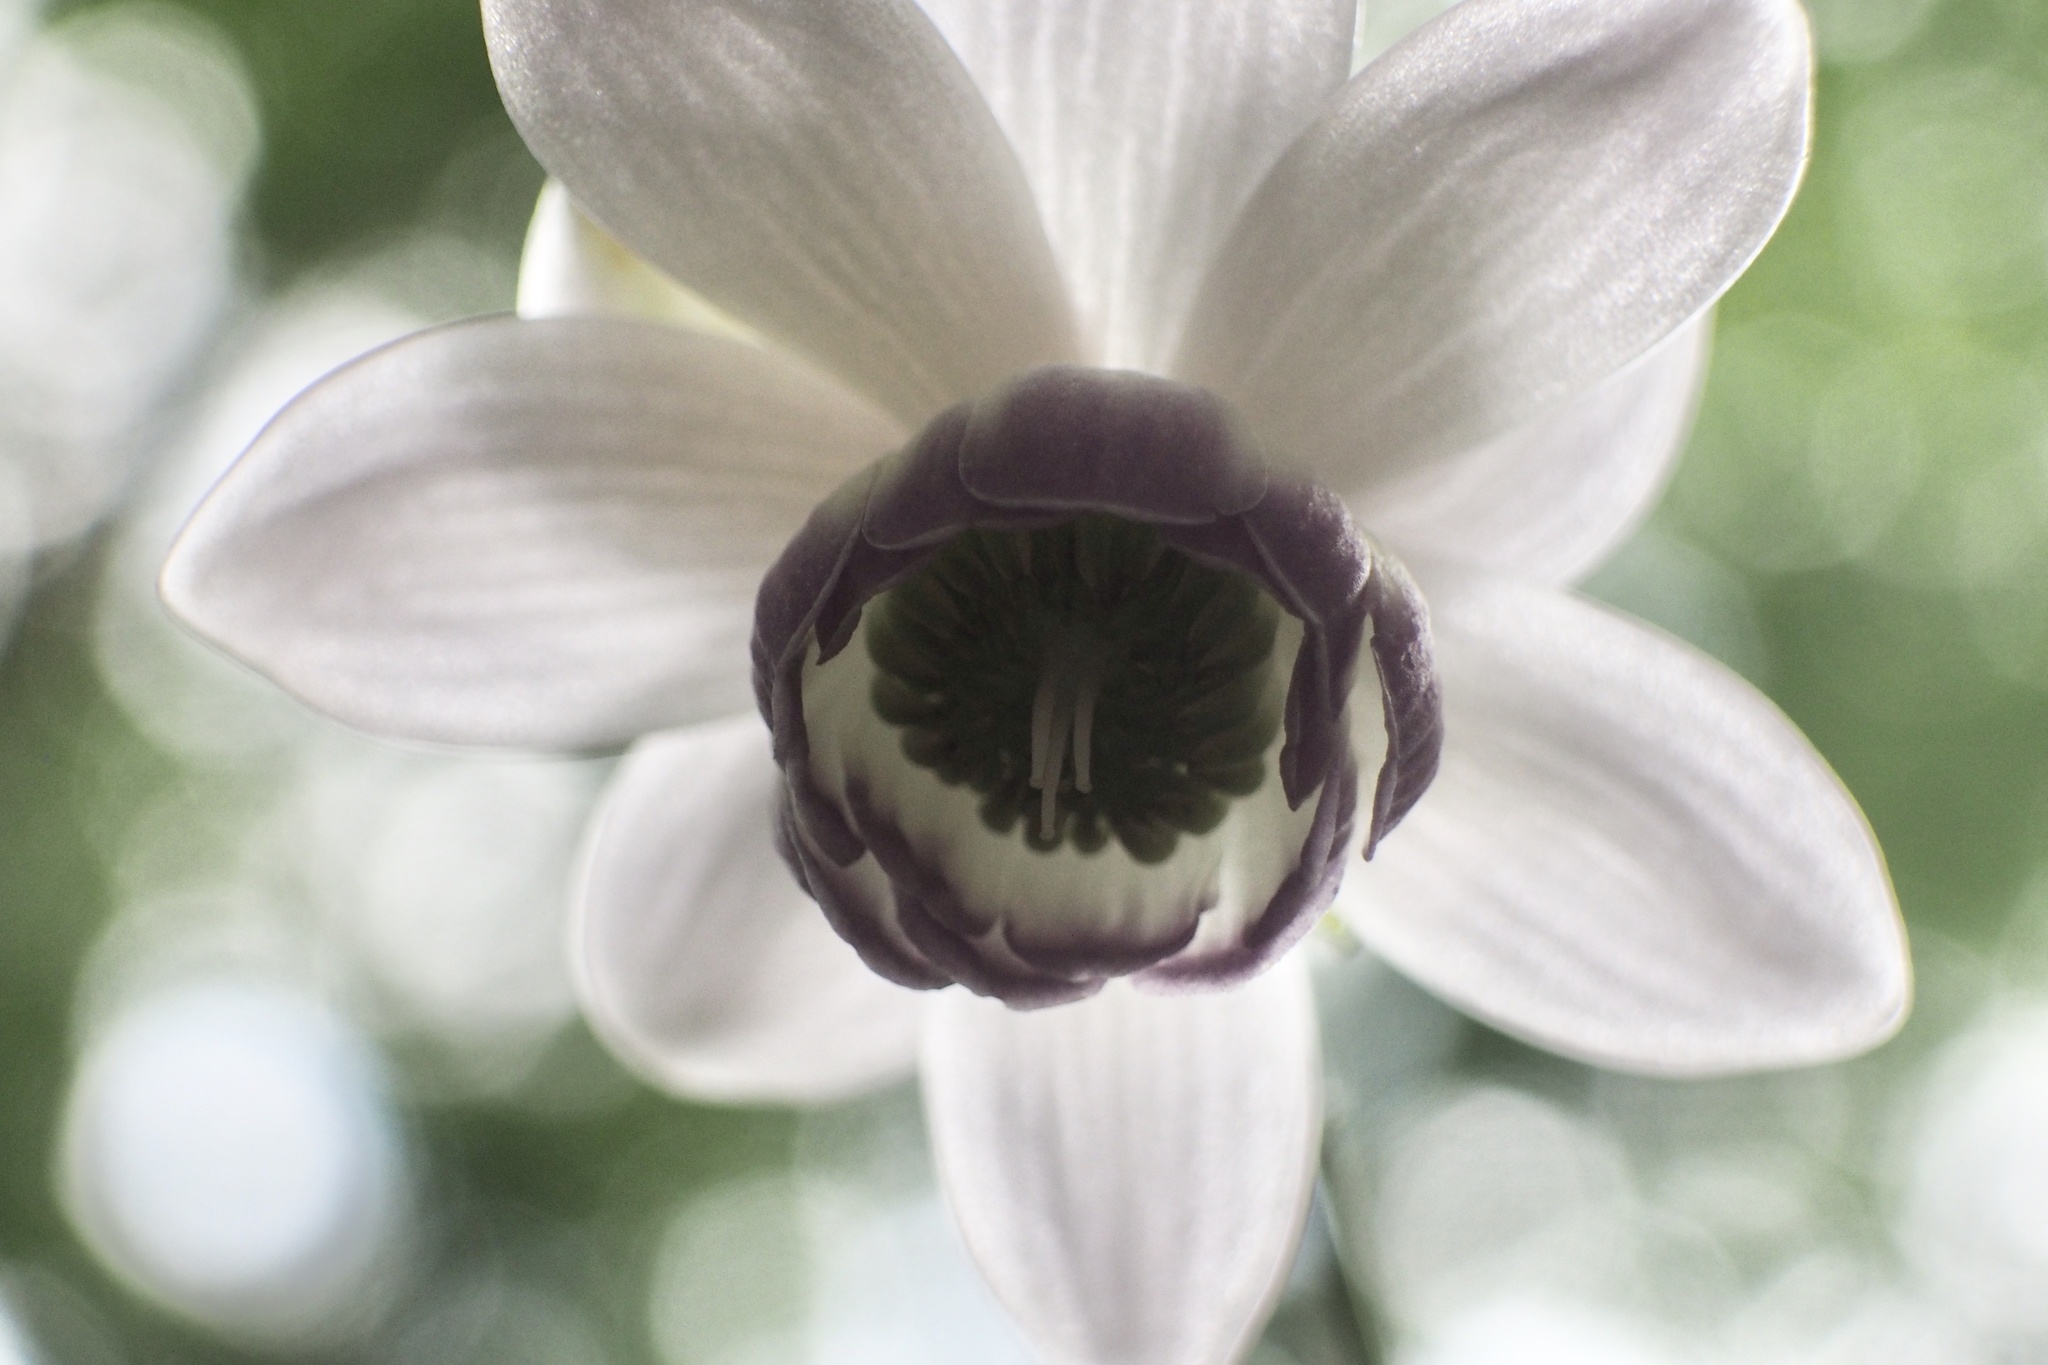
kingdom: Plantae
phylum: Tracheophyta
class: Magnoliopsida
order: Ranunculales
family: Ranunculaceae
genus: Anemonopsis
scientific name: Anemonopsis macrophylla
